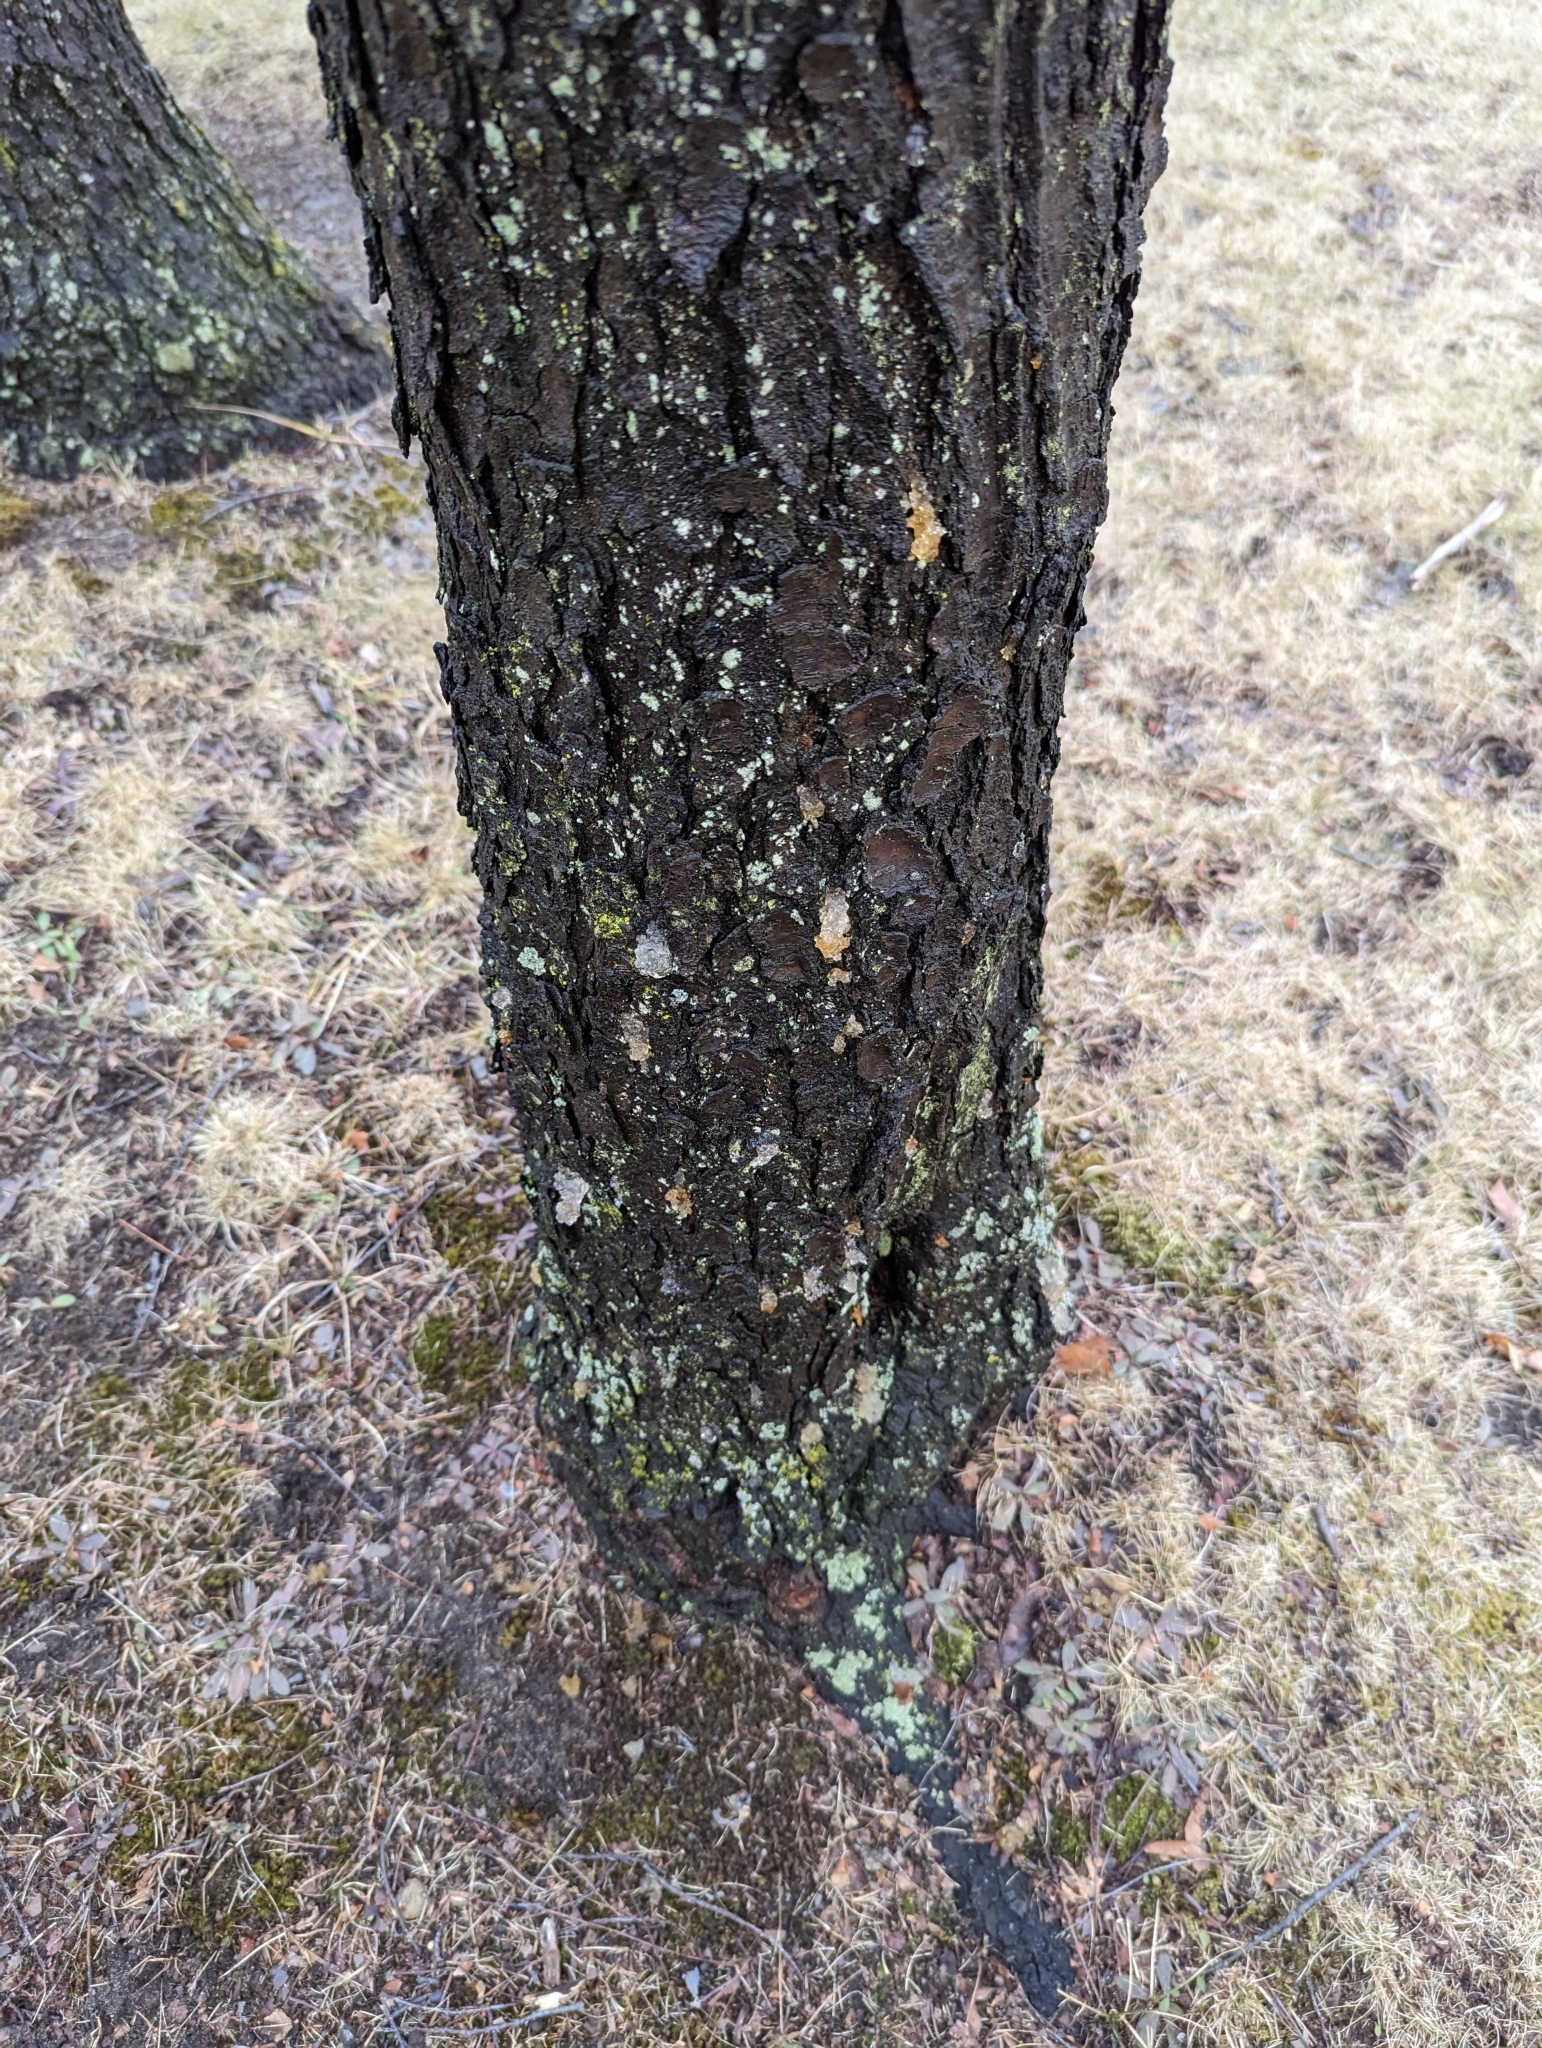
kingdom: Plantae
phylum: Tracheophyta
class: Magnoliopsida
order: Rosales
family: Rosaceae
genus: Prunus
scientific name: Prunus serotina
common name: Black cherry
